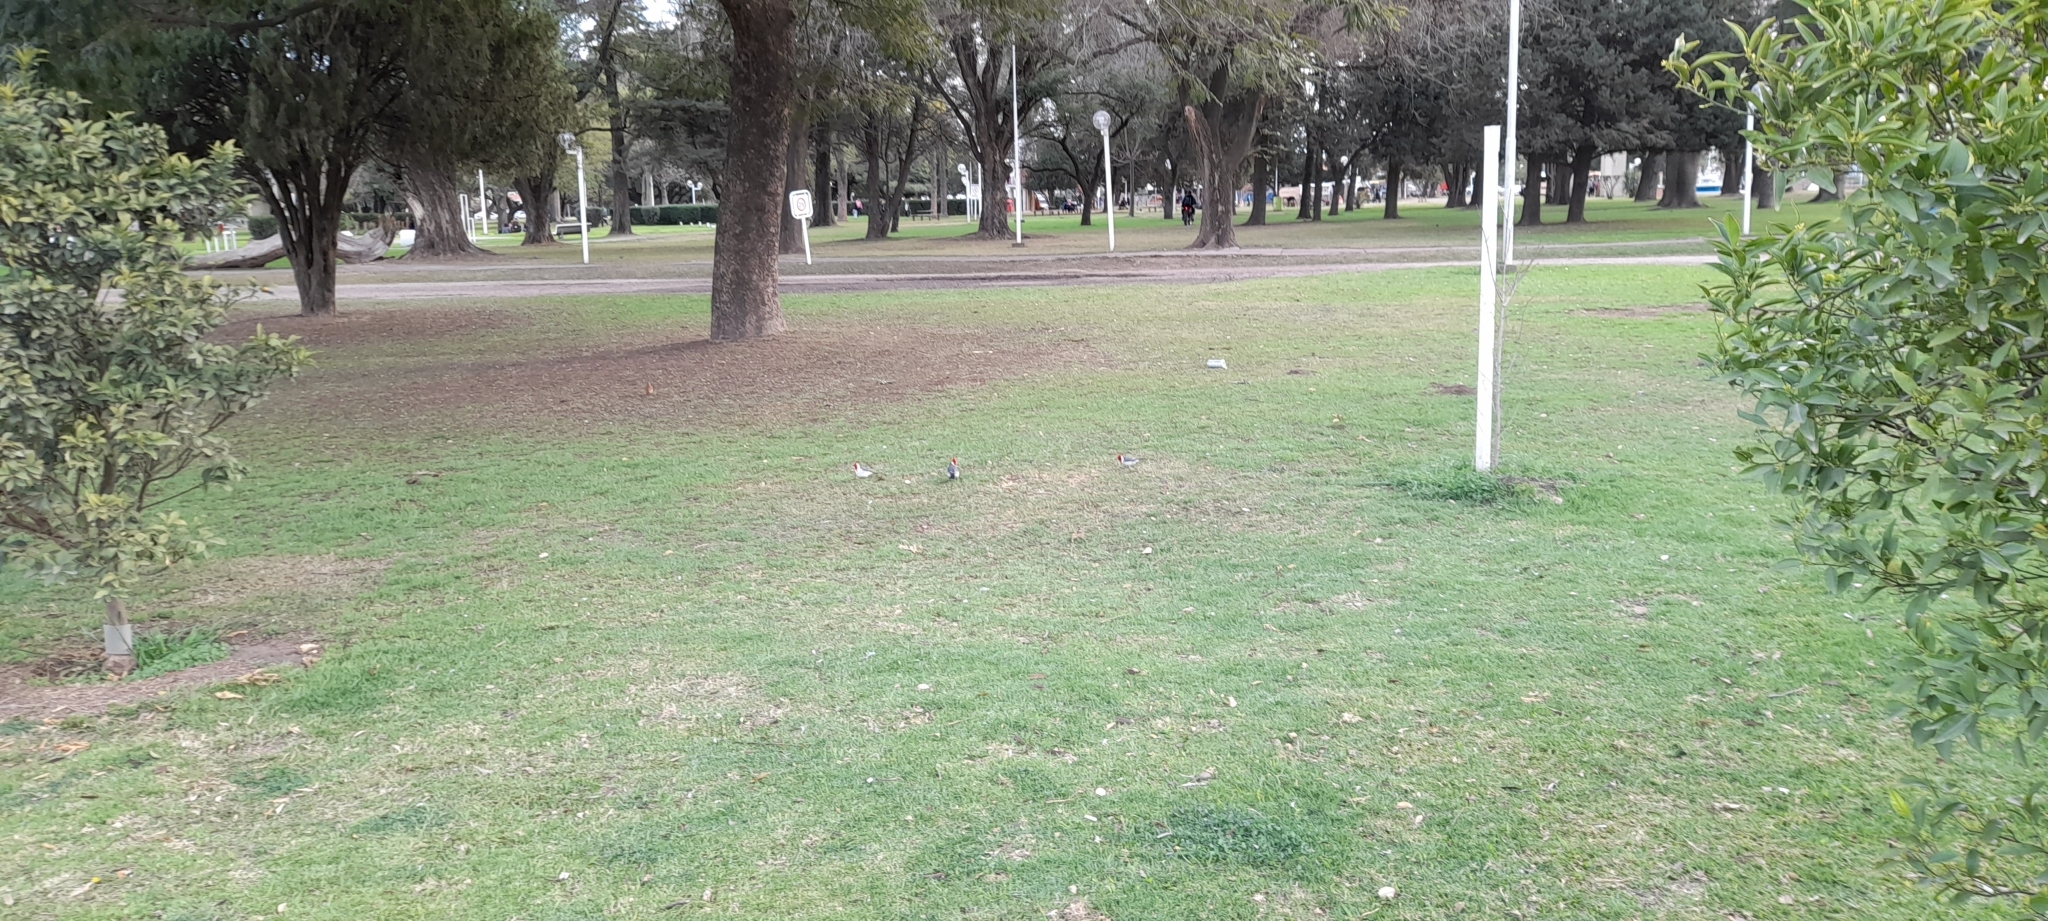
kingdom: Animalia
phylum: Chordata
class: Aves
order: Passeriformes
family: Thraupidae
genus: Paroaria
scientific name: Paroaria coronata
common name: Red-crested cardinal
